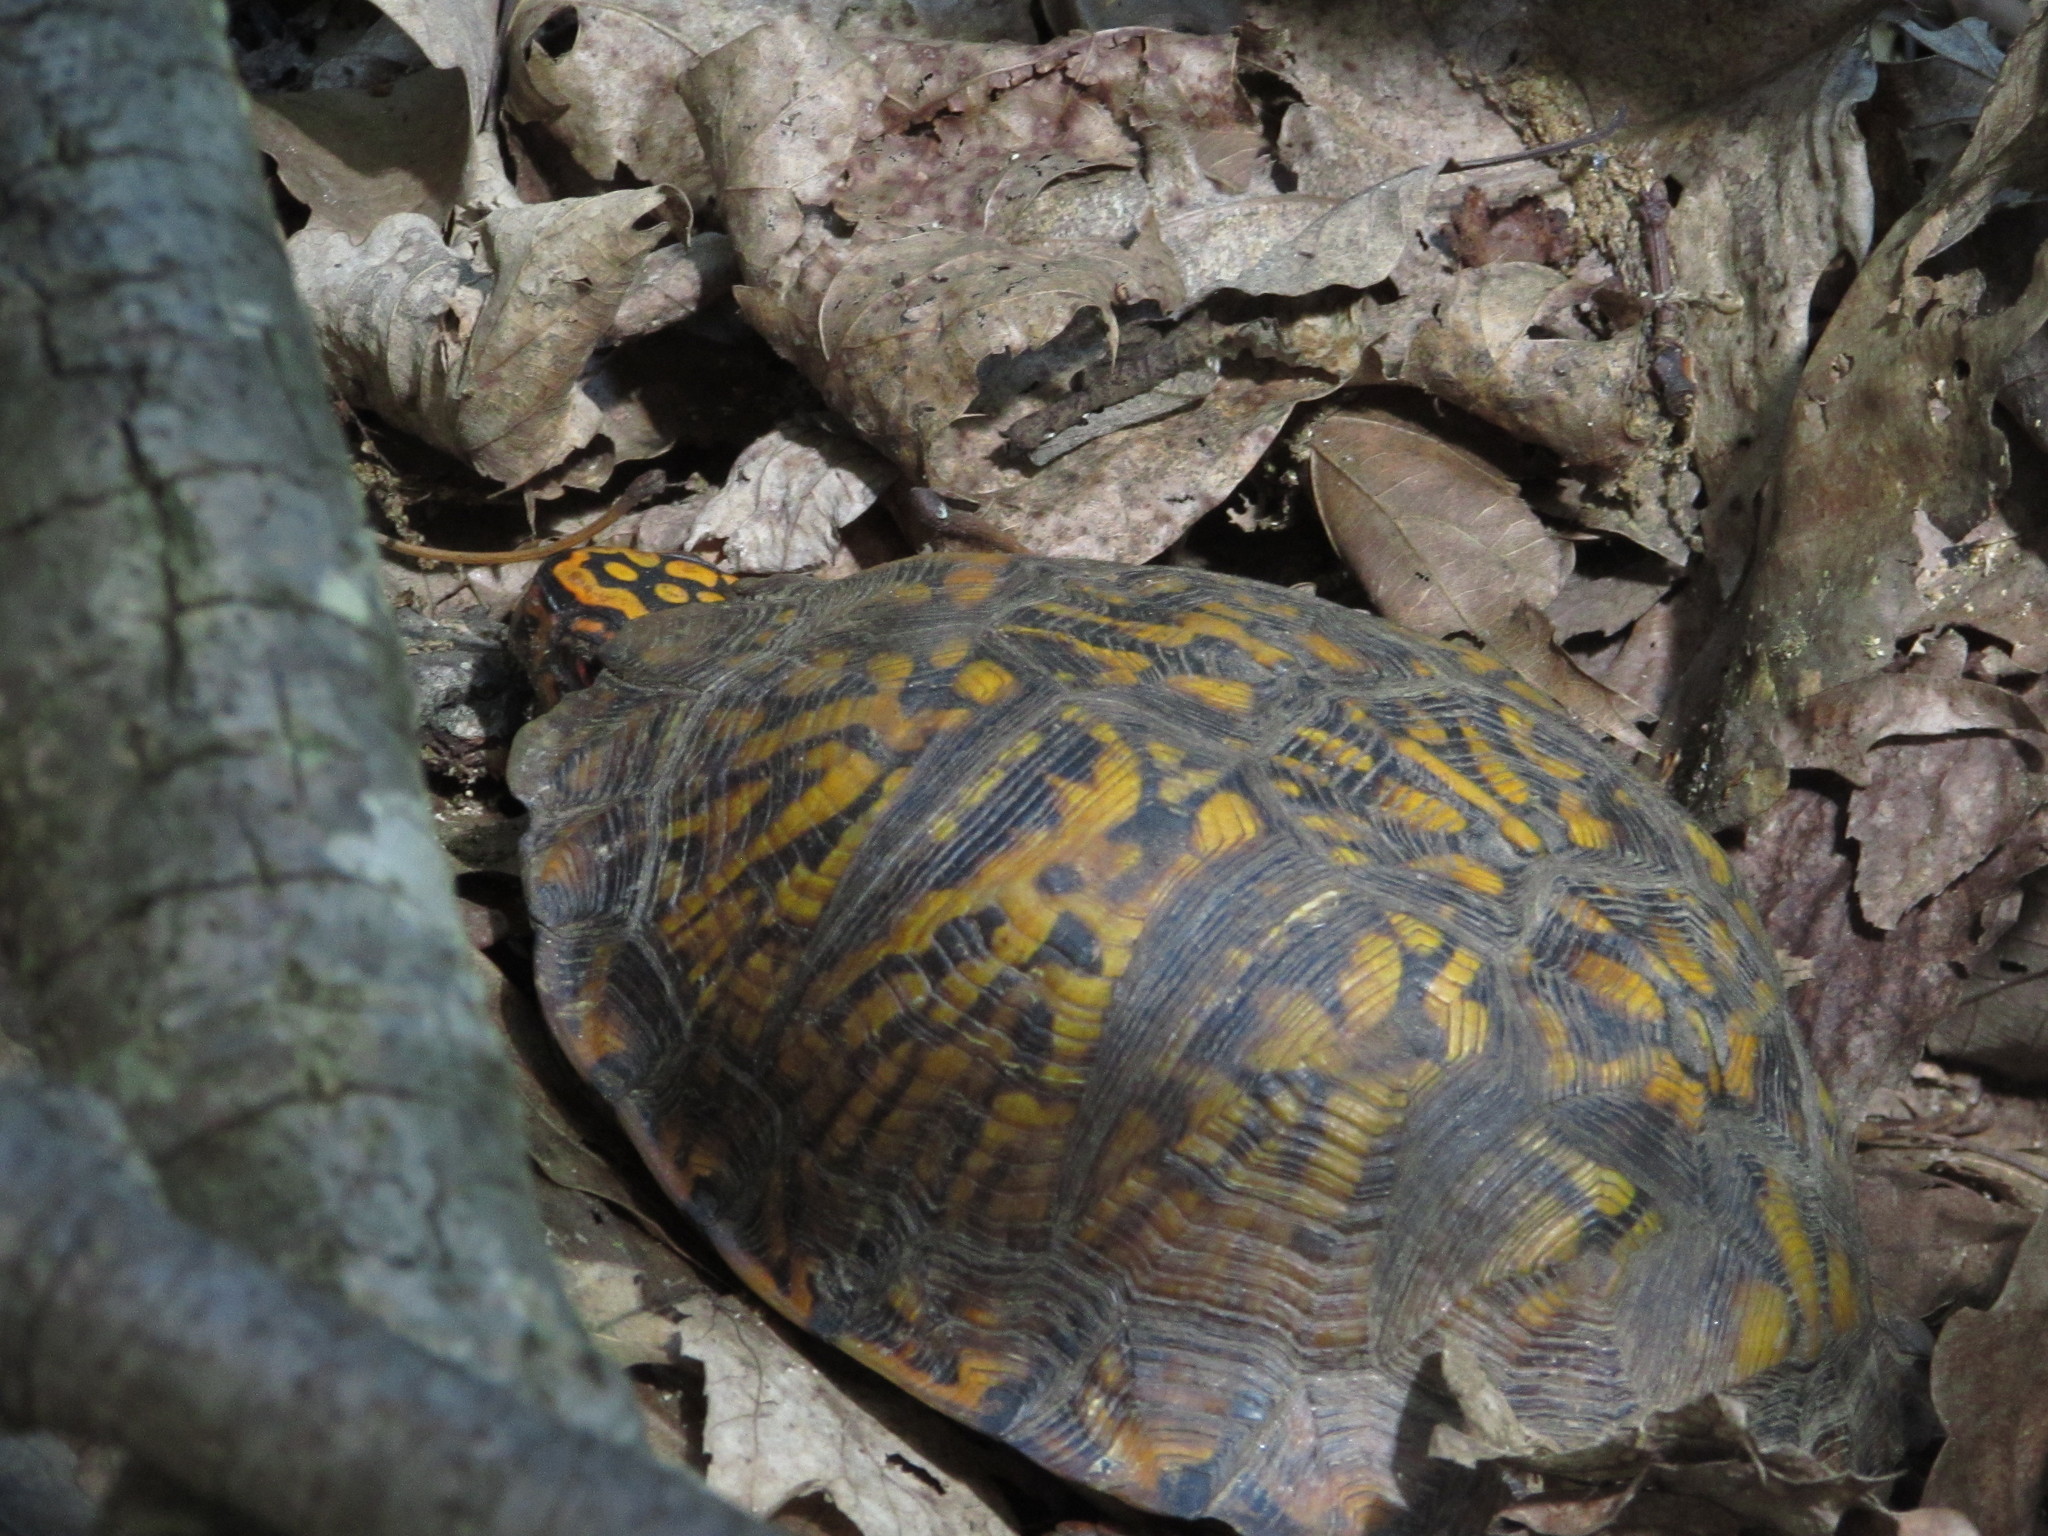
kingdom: Animalia
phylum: Chordata
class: Testudines
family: Emydidae
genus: Terrapene
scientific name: Terrapene carolina
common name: Common box turtle
